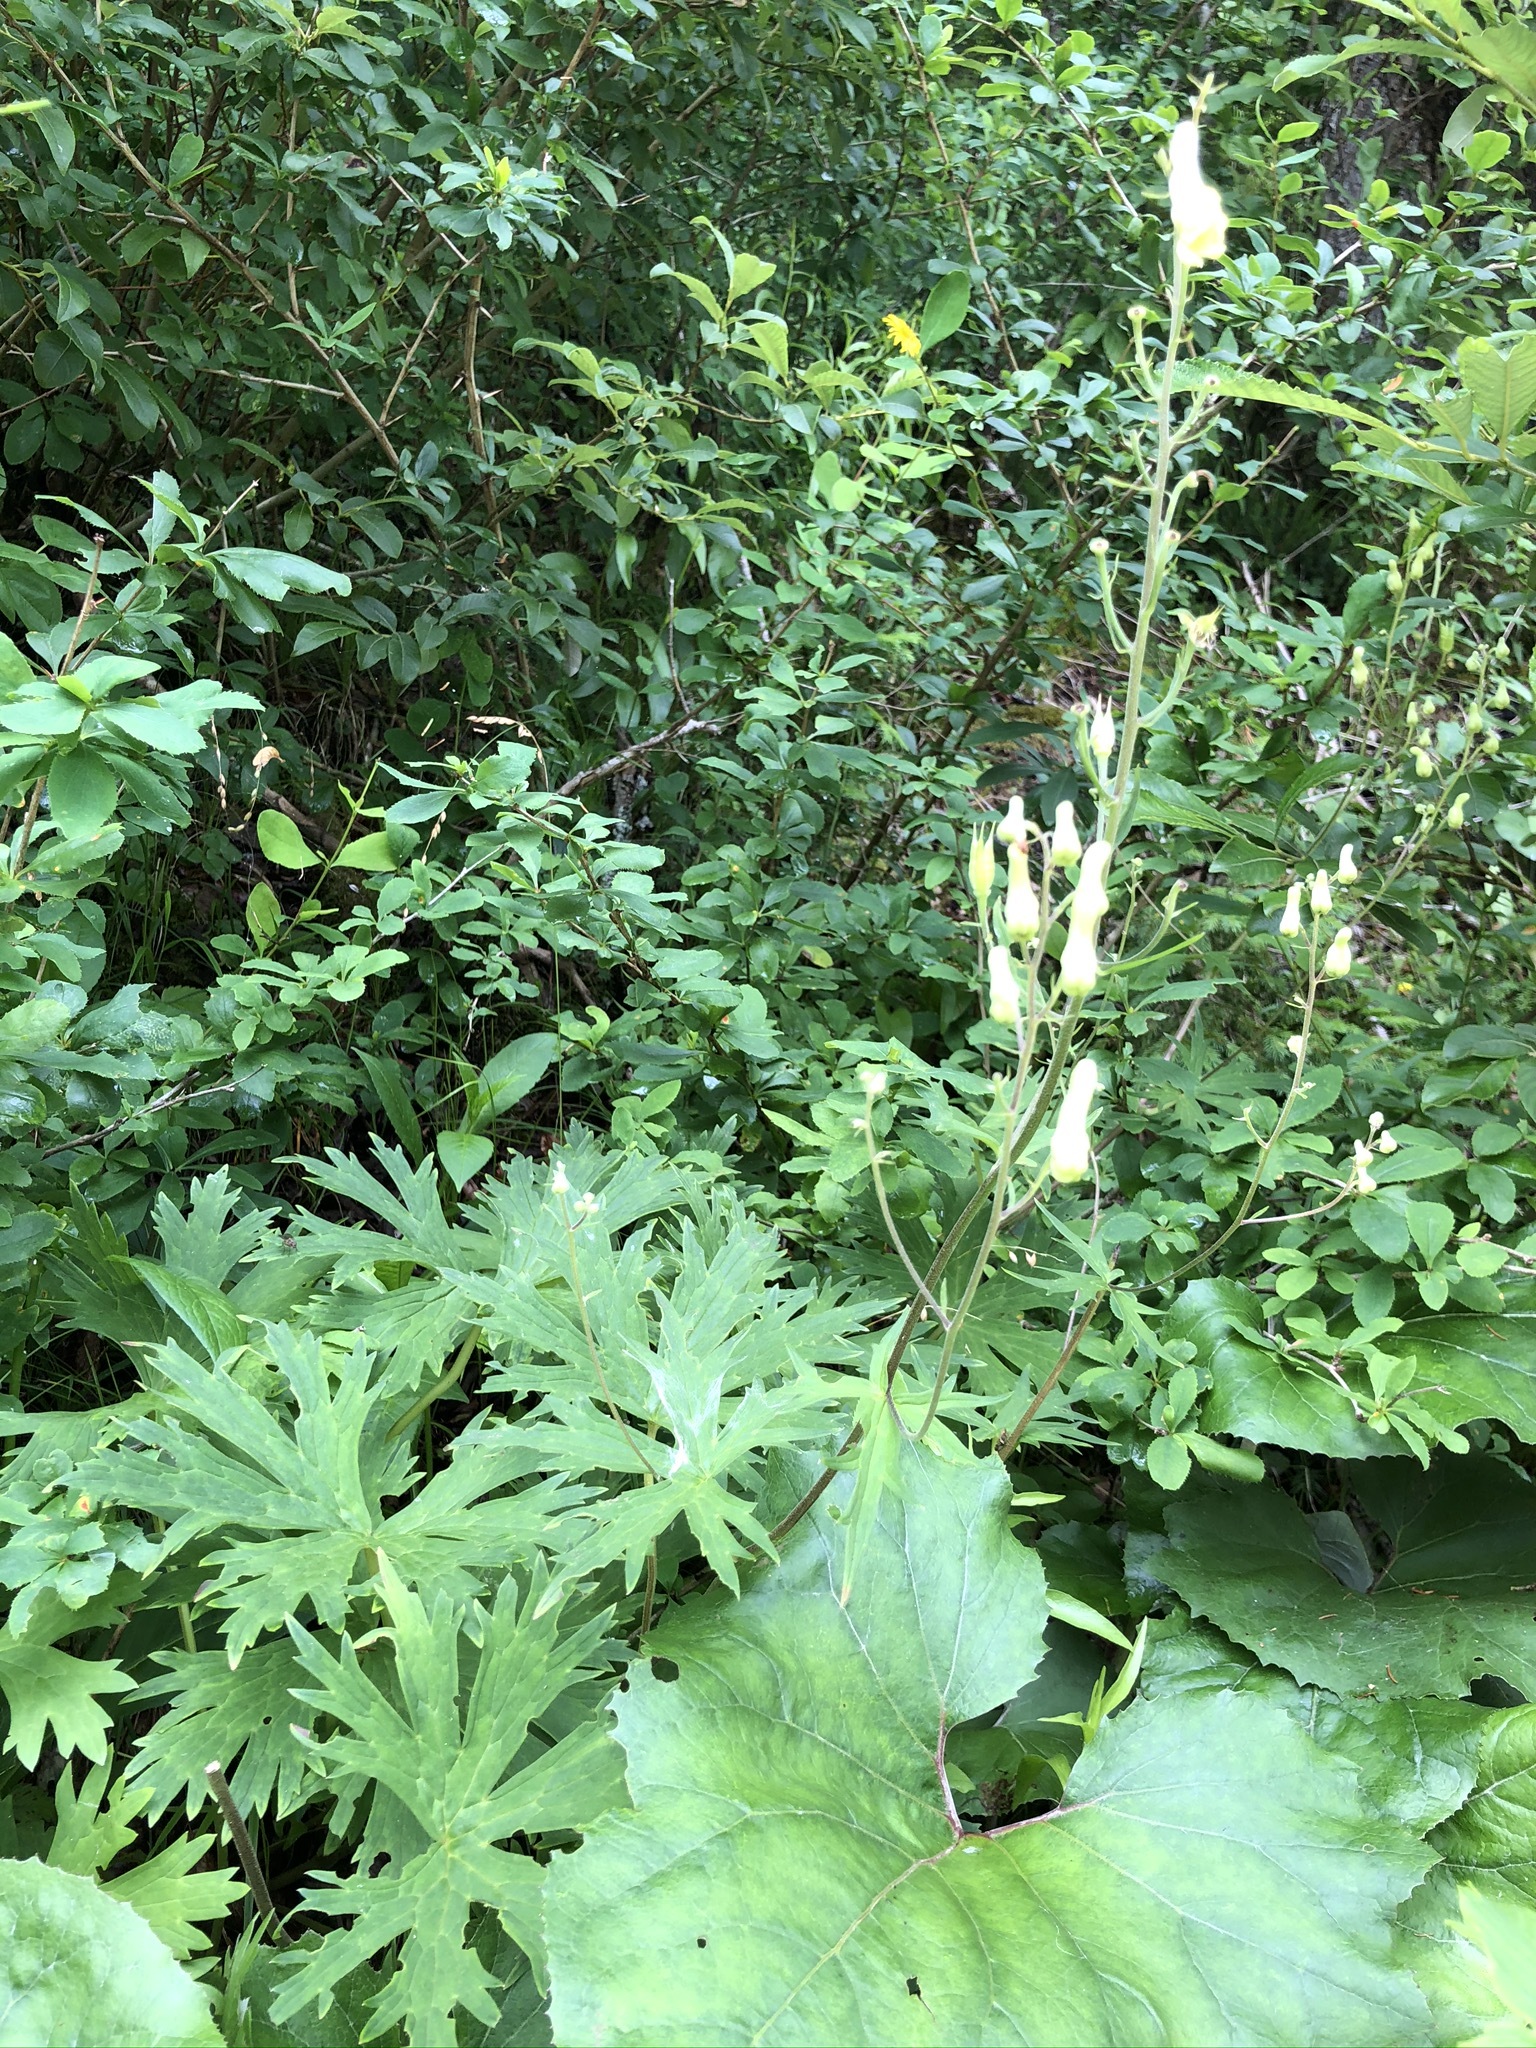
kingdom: Plantae
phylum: Tracheophyta
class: Magnoliopsida
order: Ranunculales
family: Ranunculaceae
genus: Aconitum
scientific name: Aconitum lycoctonum
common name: Wolf's-bane
